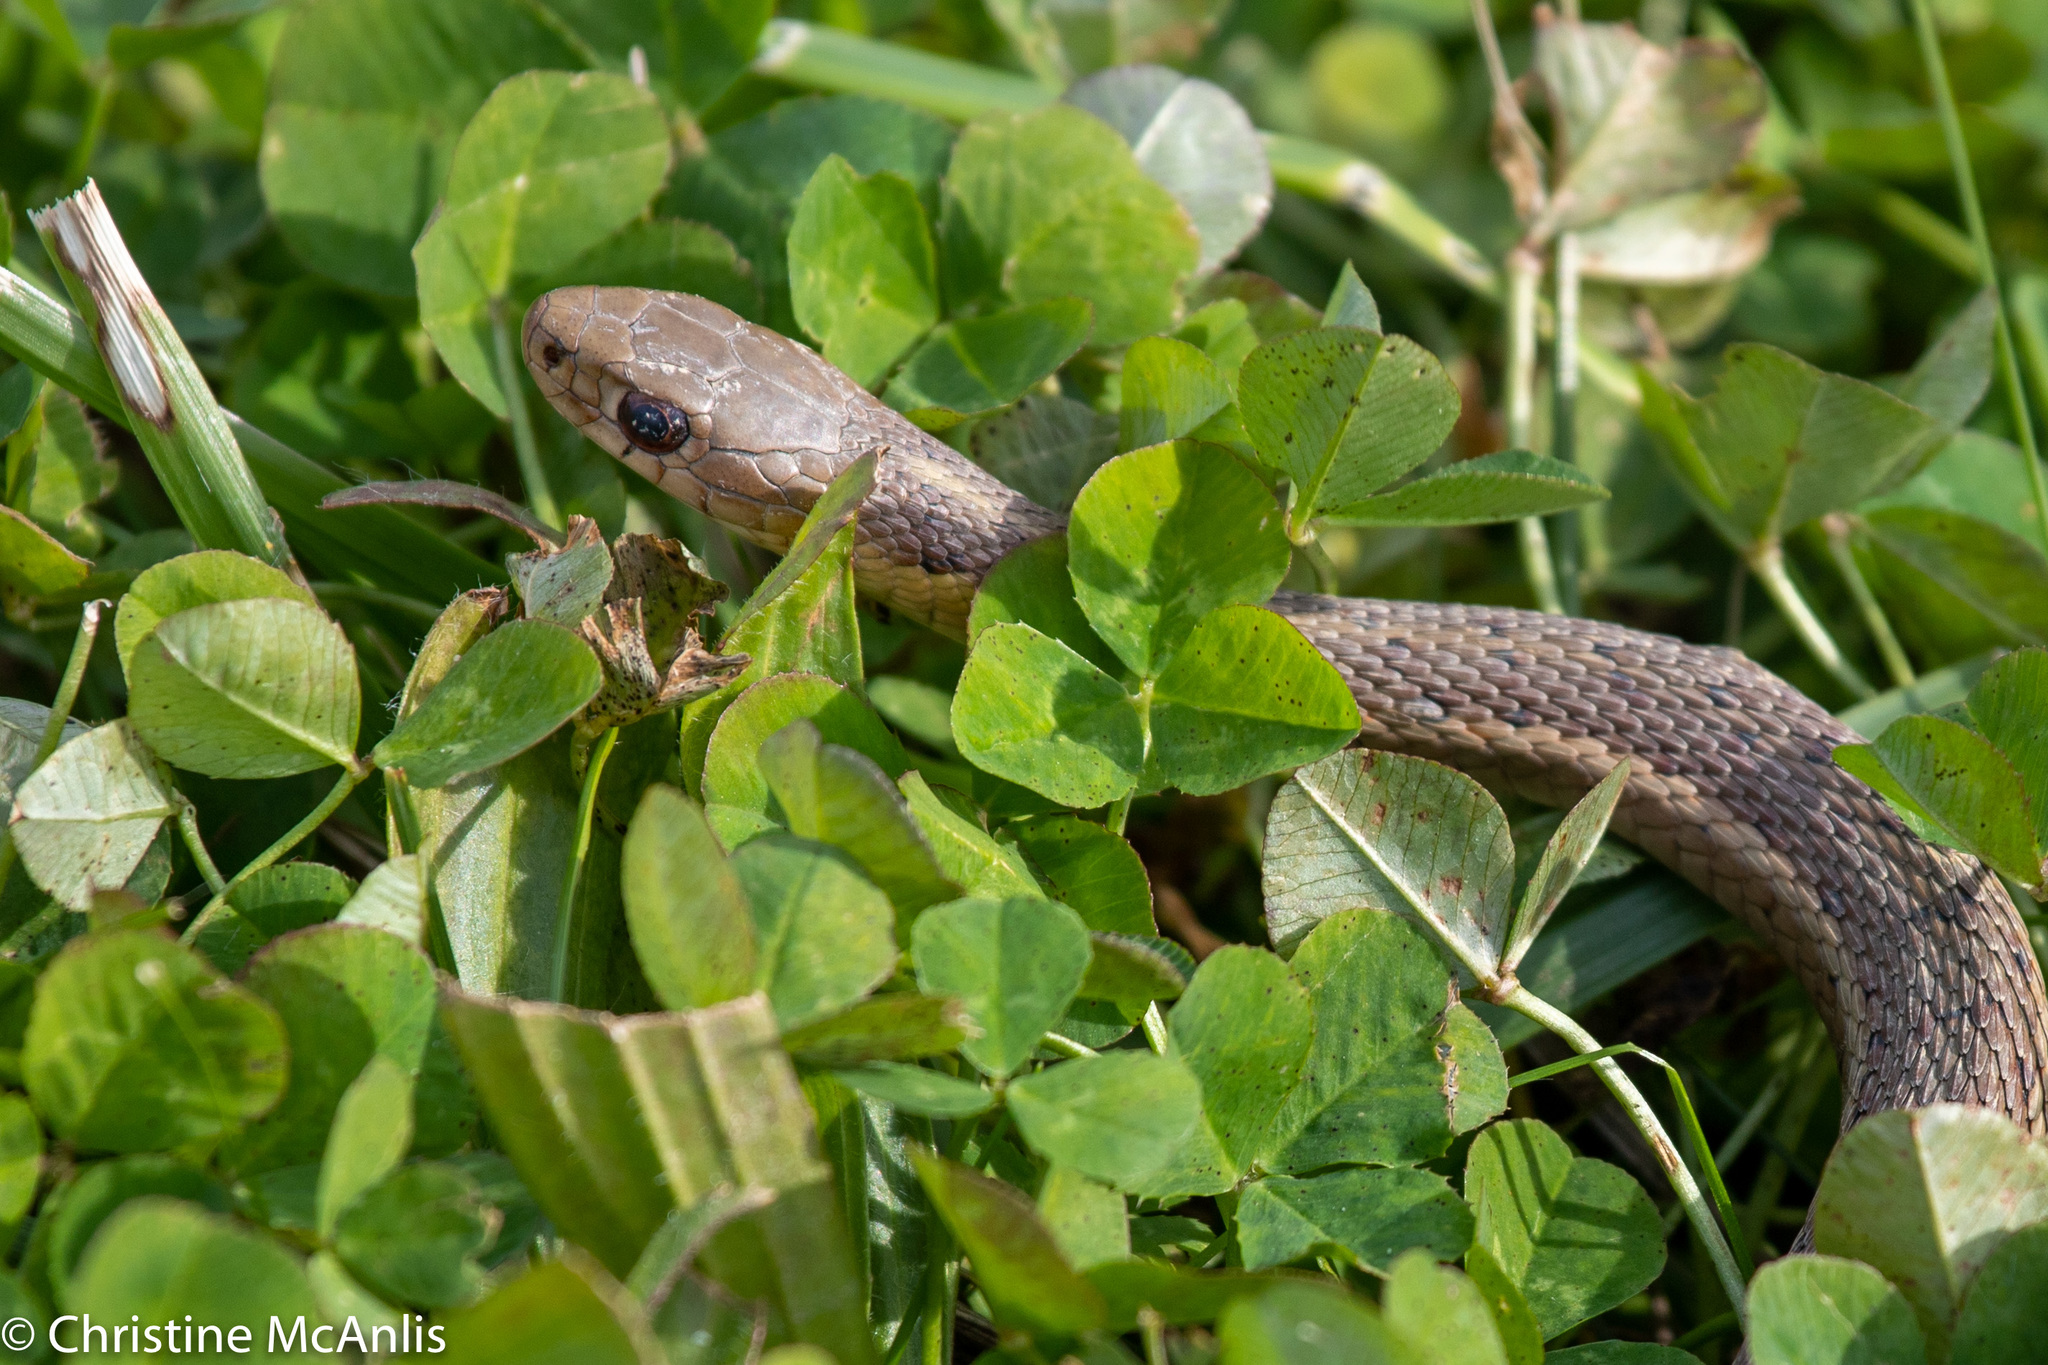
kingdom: Animalia
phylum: Chordata
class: Squamata
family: Colubridae
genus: Thamnophis
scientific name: Thamnophis sirtalis
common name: Common garter snake
